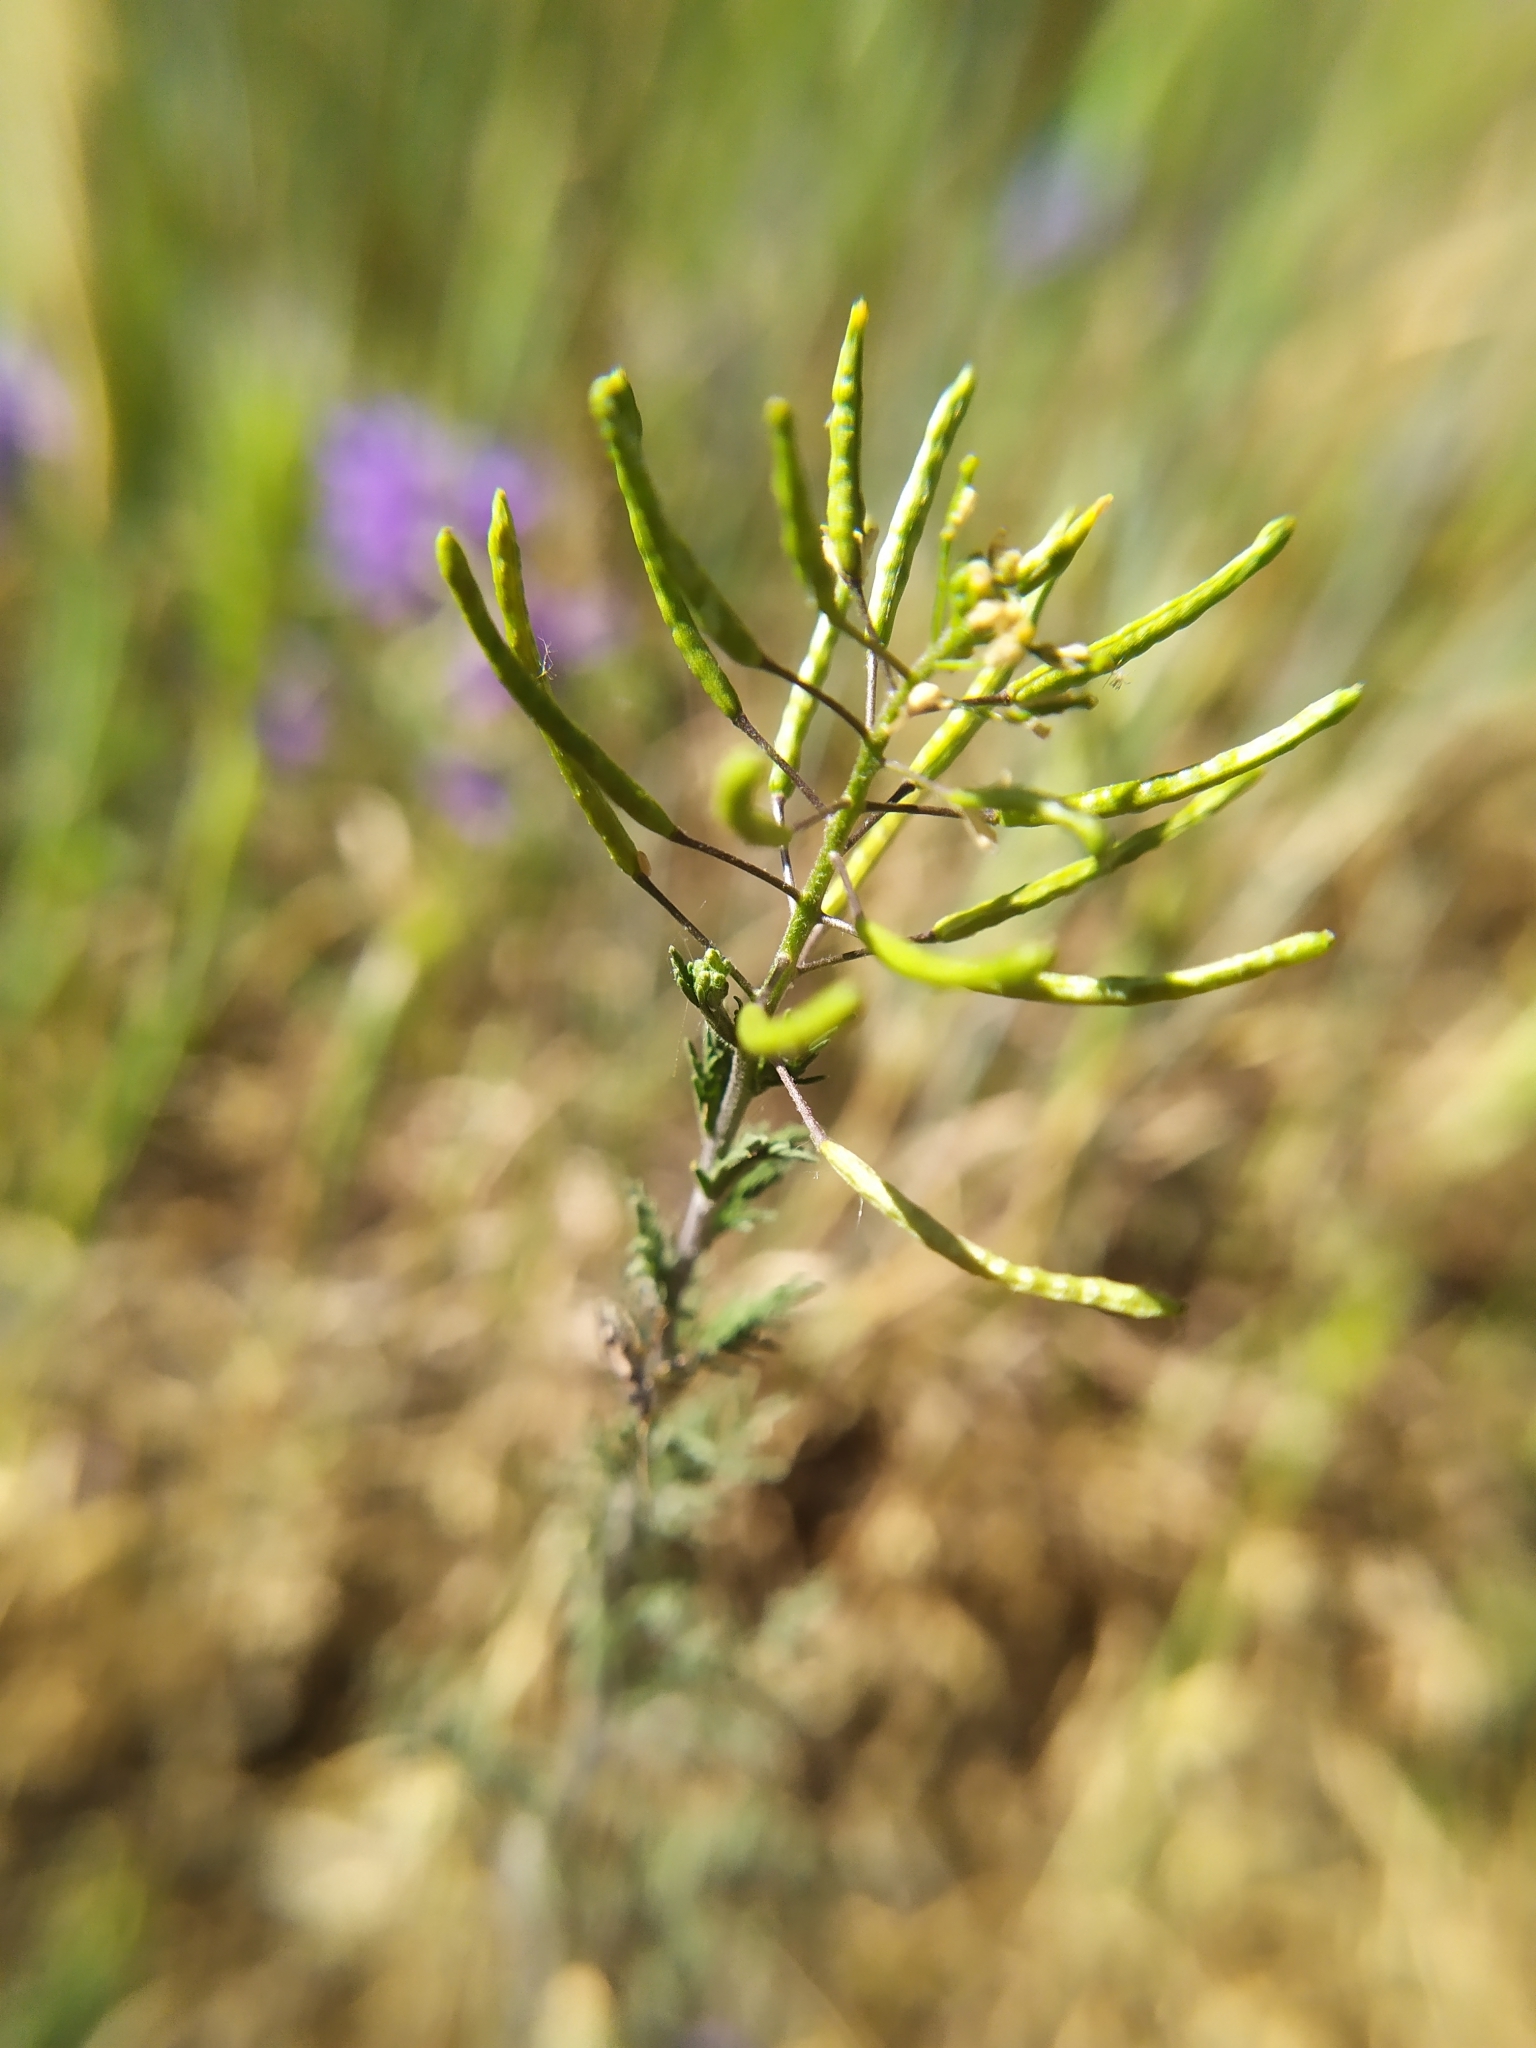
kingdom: Plantae
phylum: Tracheophyta
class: Magnoliopsida
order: Brassicales
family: Brassicaceae
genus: Descurainia
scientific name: Descurainia sophia
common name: Flixweed
